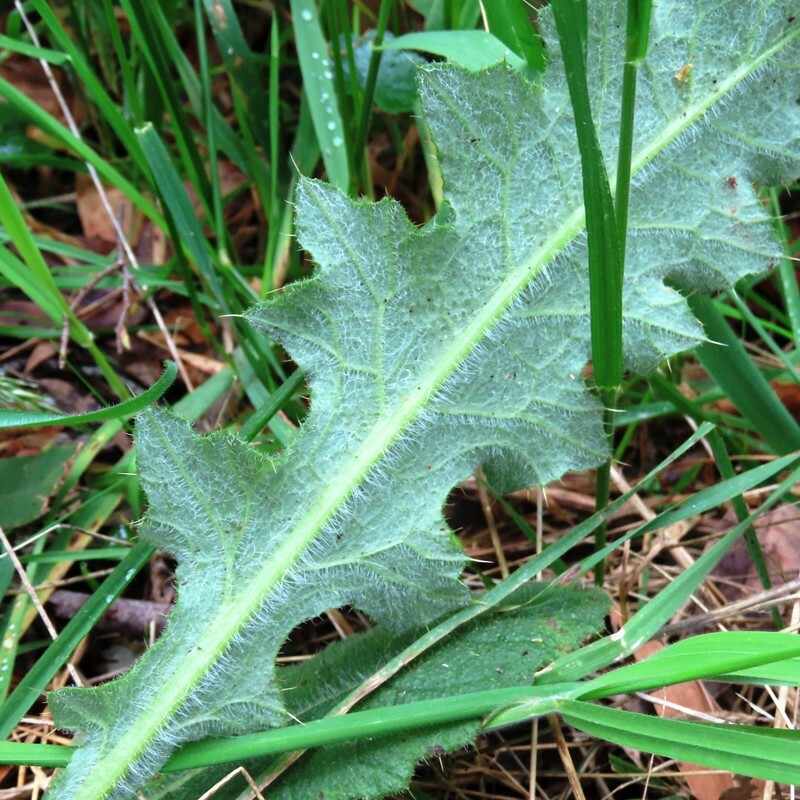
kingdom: Plantae
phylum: Tracheophyta
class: Magnoliopsida
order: Asterales
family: Asteraceae
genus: Cirsium
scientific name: Cirsium vulgare
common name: Bull thistle
